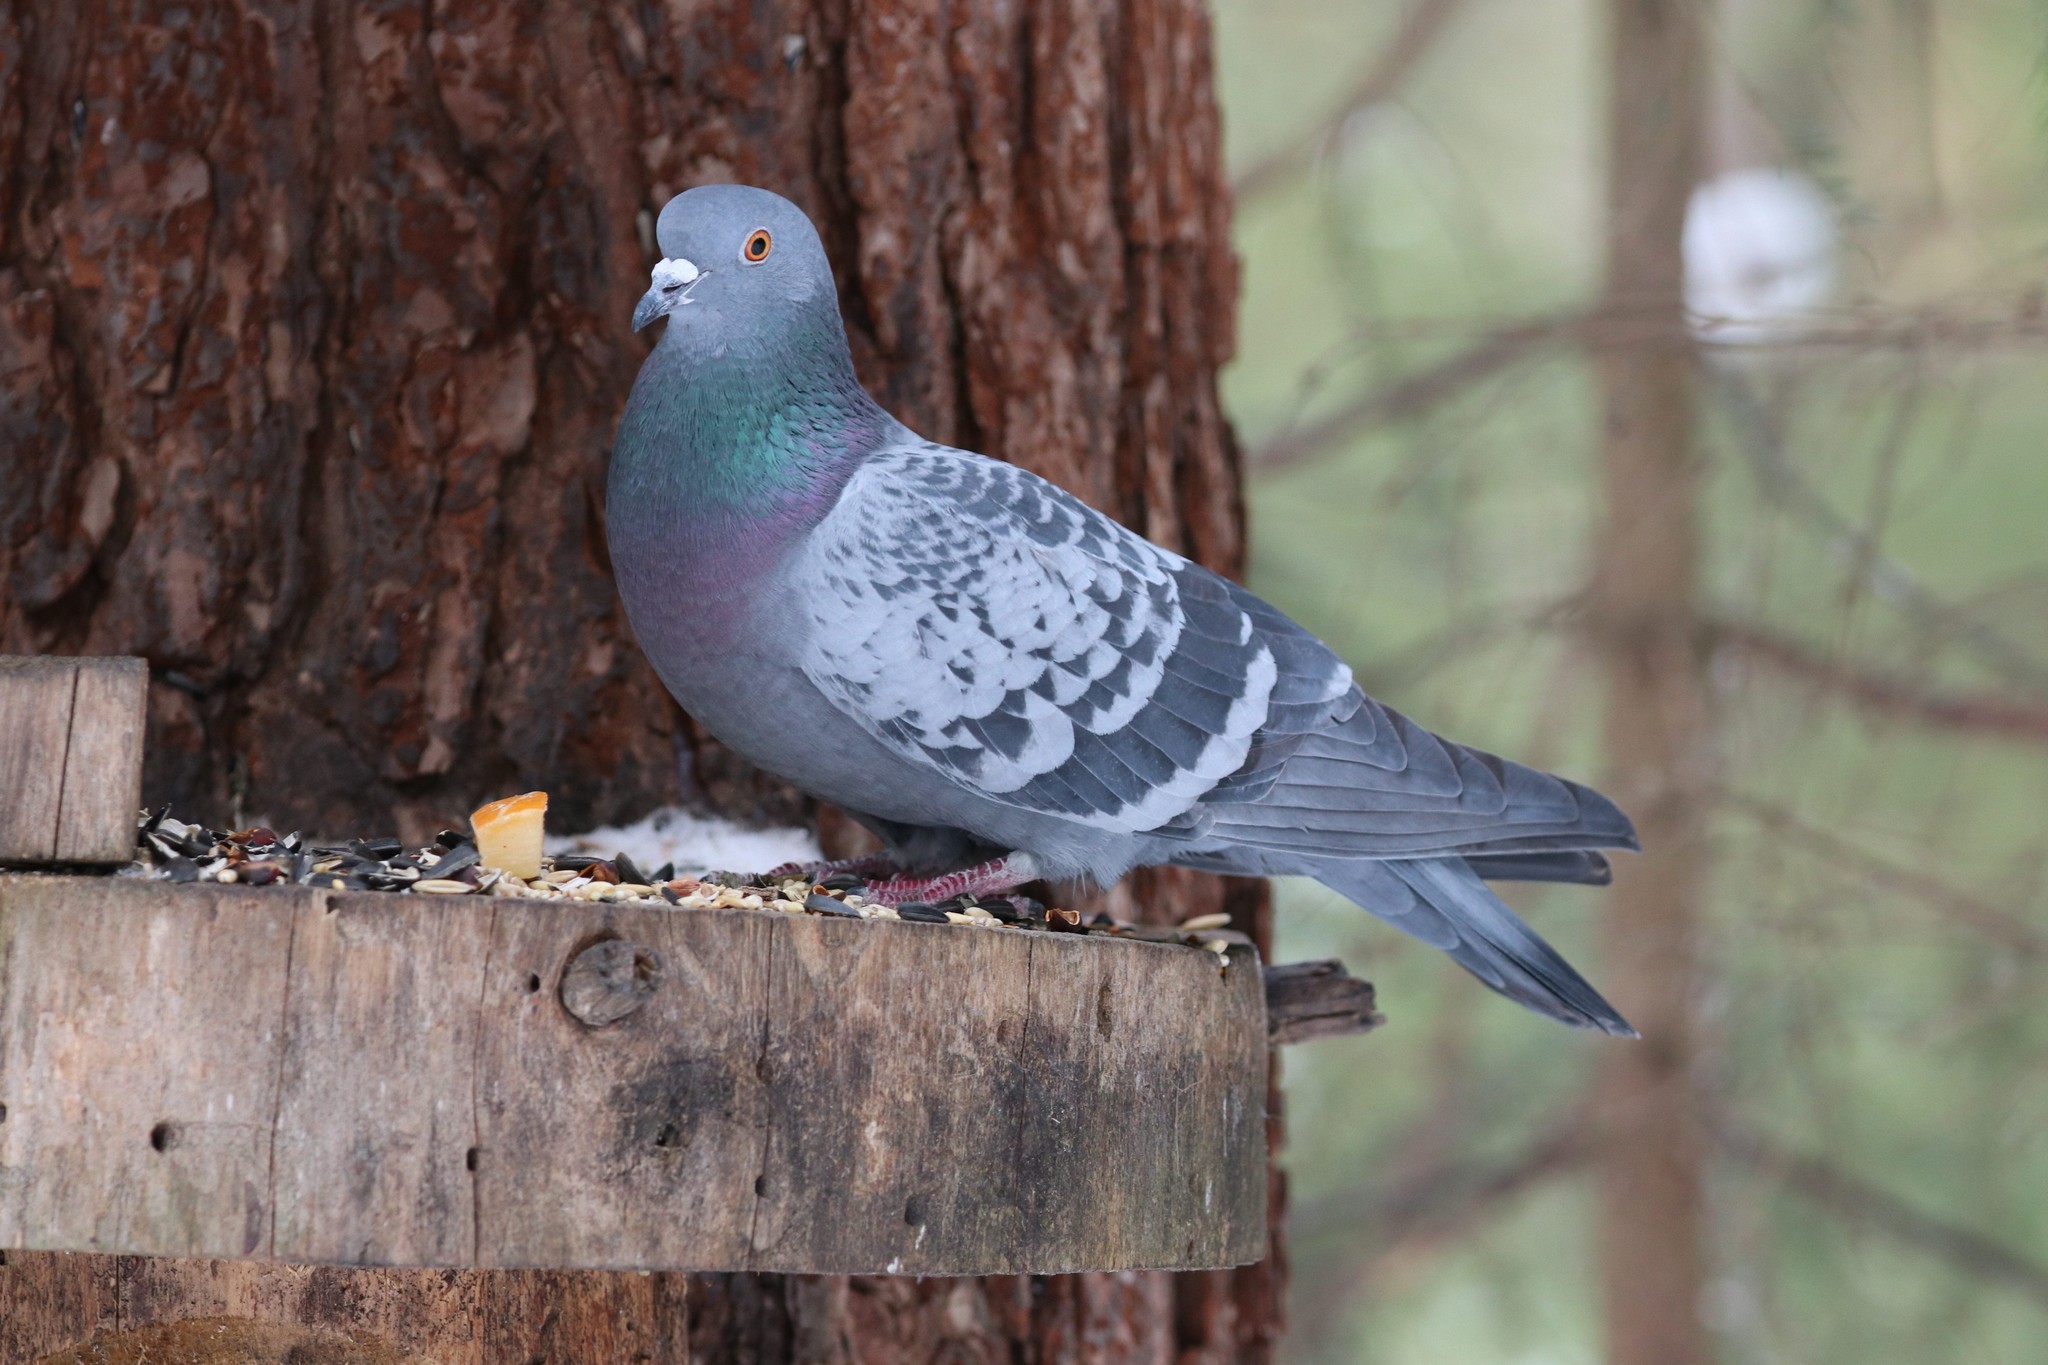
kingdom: Animalia
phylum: Chordata
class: Aves
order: Columbiformes
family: Columbidae
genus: Columba
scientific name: Columba livia
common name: Rock pigeon
